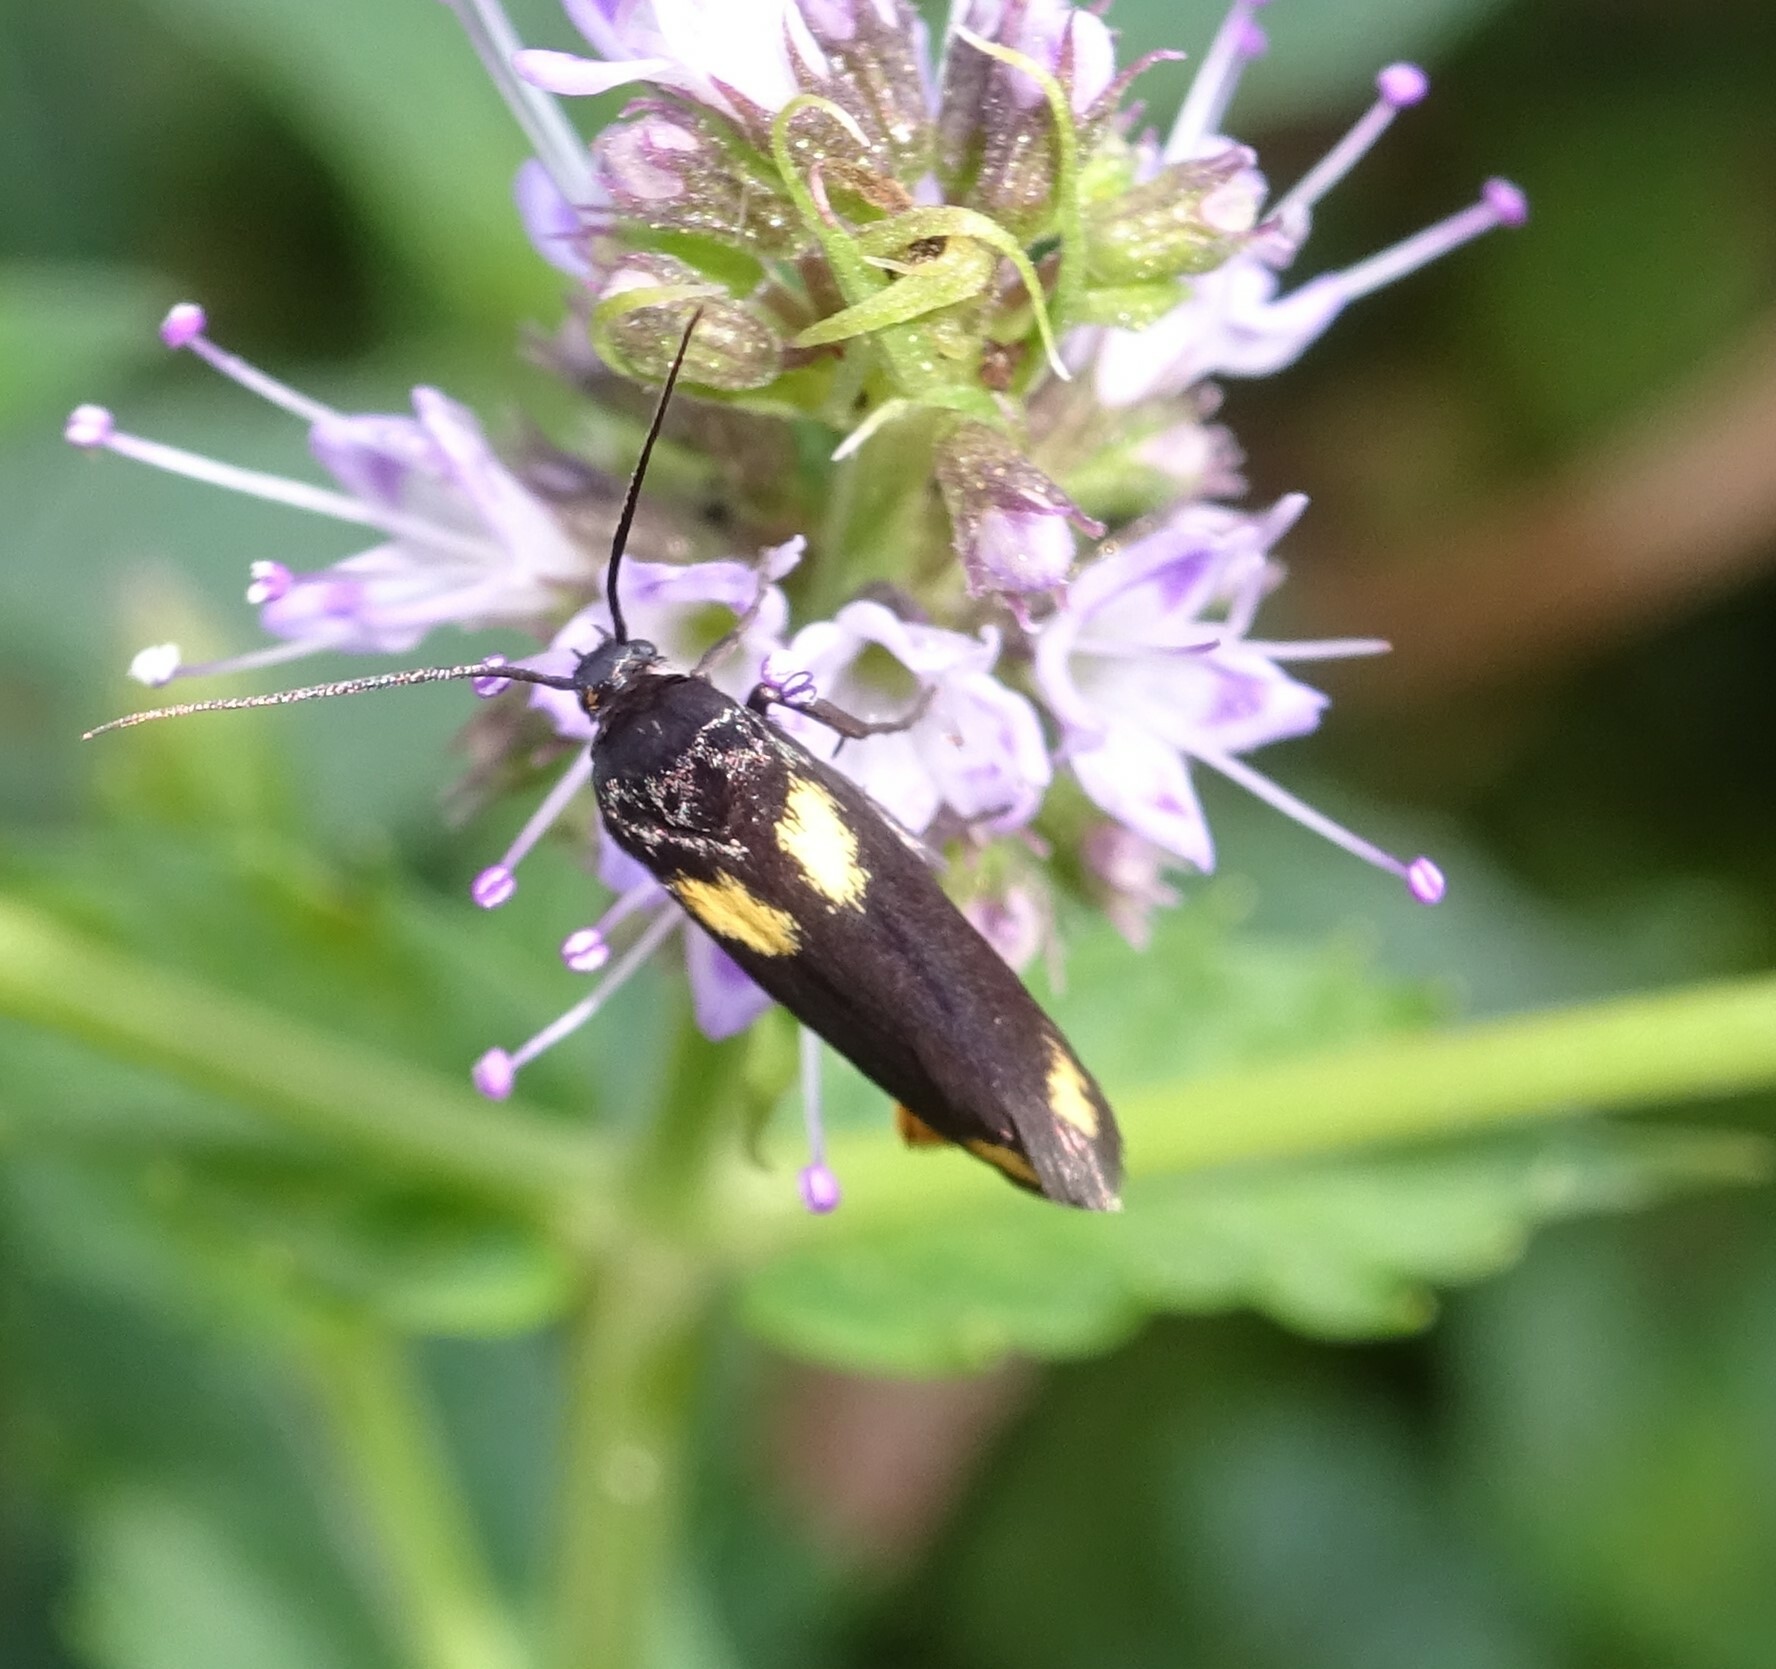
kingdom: Animalia
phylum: Arthropoda
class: Insecta
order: Lepidoptera
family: Scythrididae
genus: Scythris
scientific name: Scythris sinensis
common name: Kentish owlet
